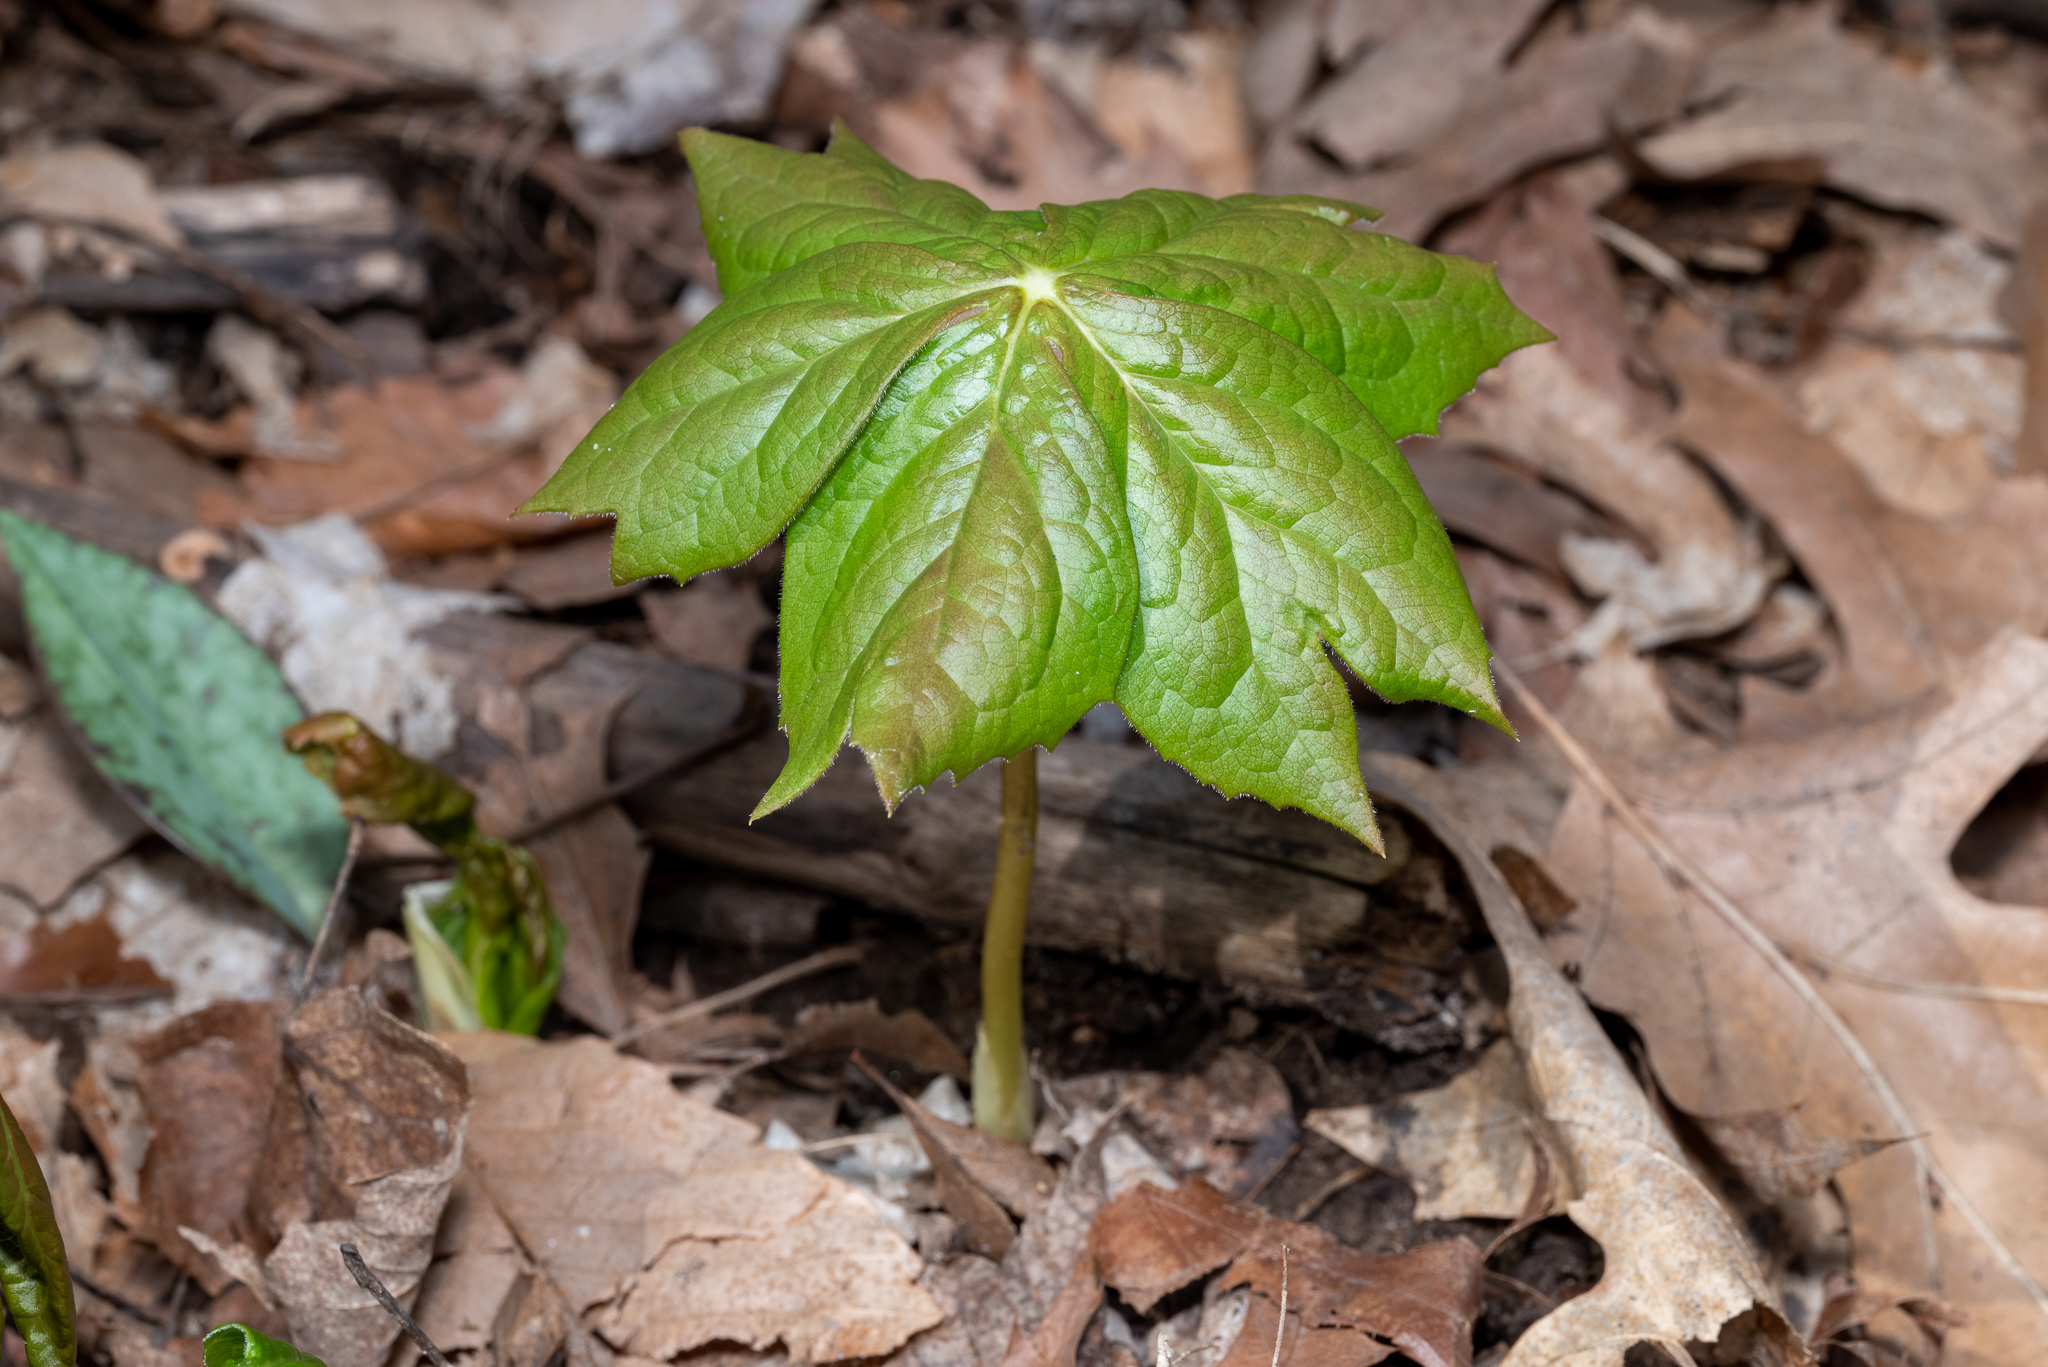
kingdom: Plantae
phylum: Tracheophyta
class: Magnoliopsida
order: Ranunculales
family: Berberidaceae
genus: Podophyllum
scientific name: Podophyllum peltatum
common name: Wild mandrake
